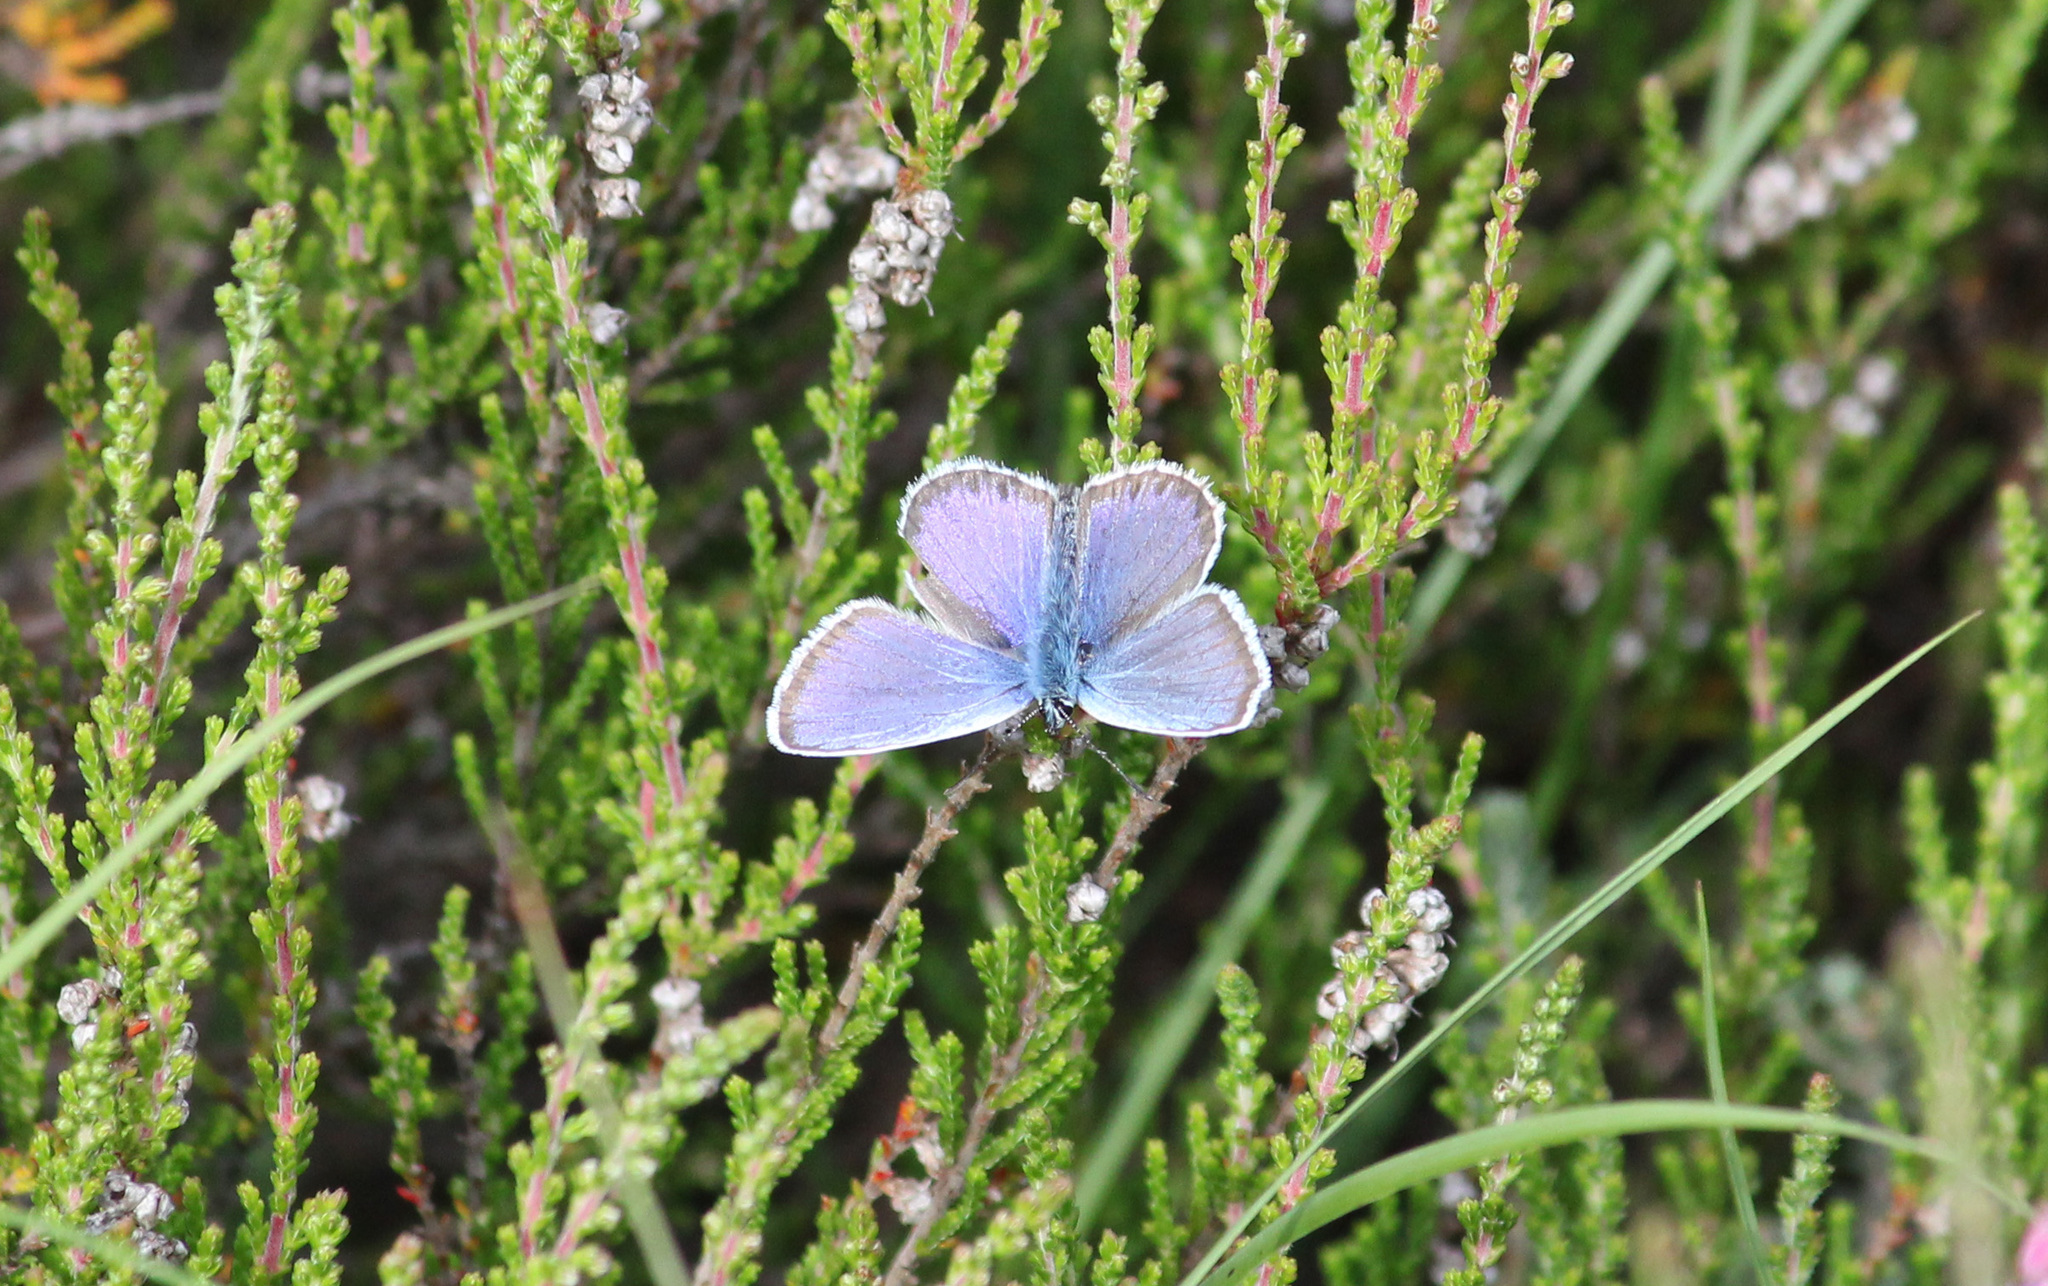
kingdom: Animalia
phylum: Arthropoda
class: Insecta
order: Lepidoptera
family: Lycaenidae
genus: Plebejus
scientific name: Plebejus argus
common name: Silver-studded blue
